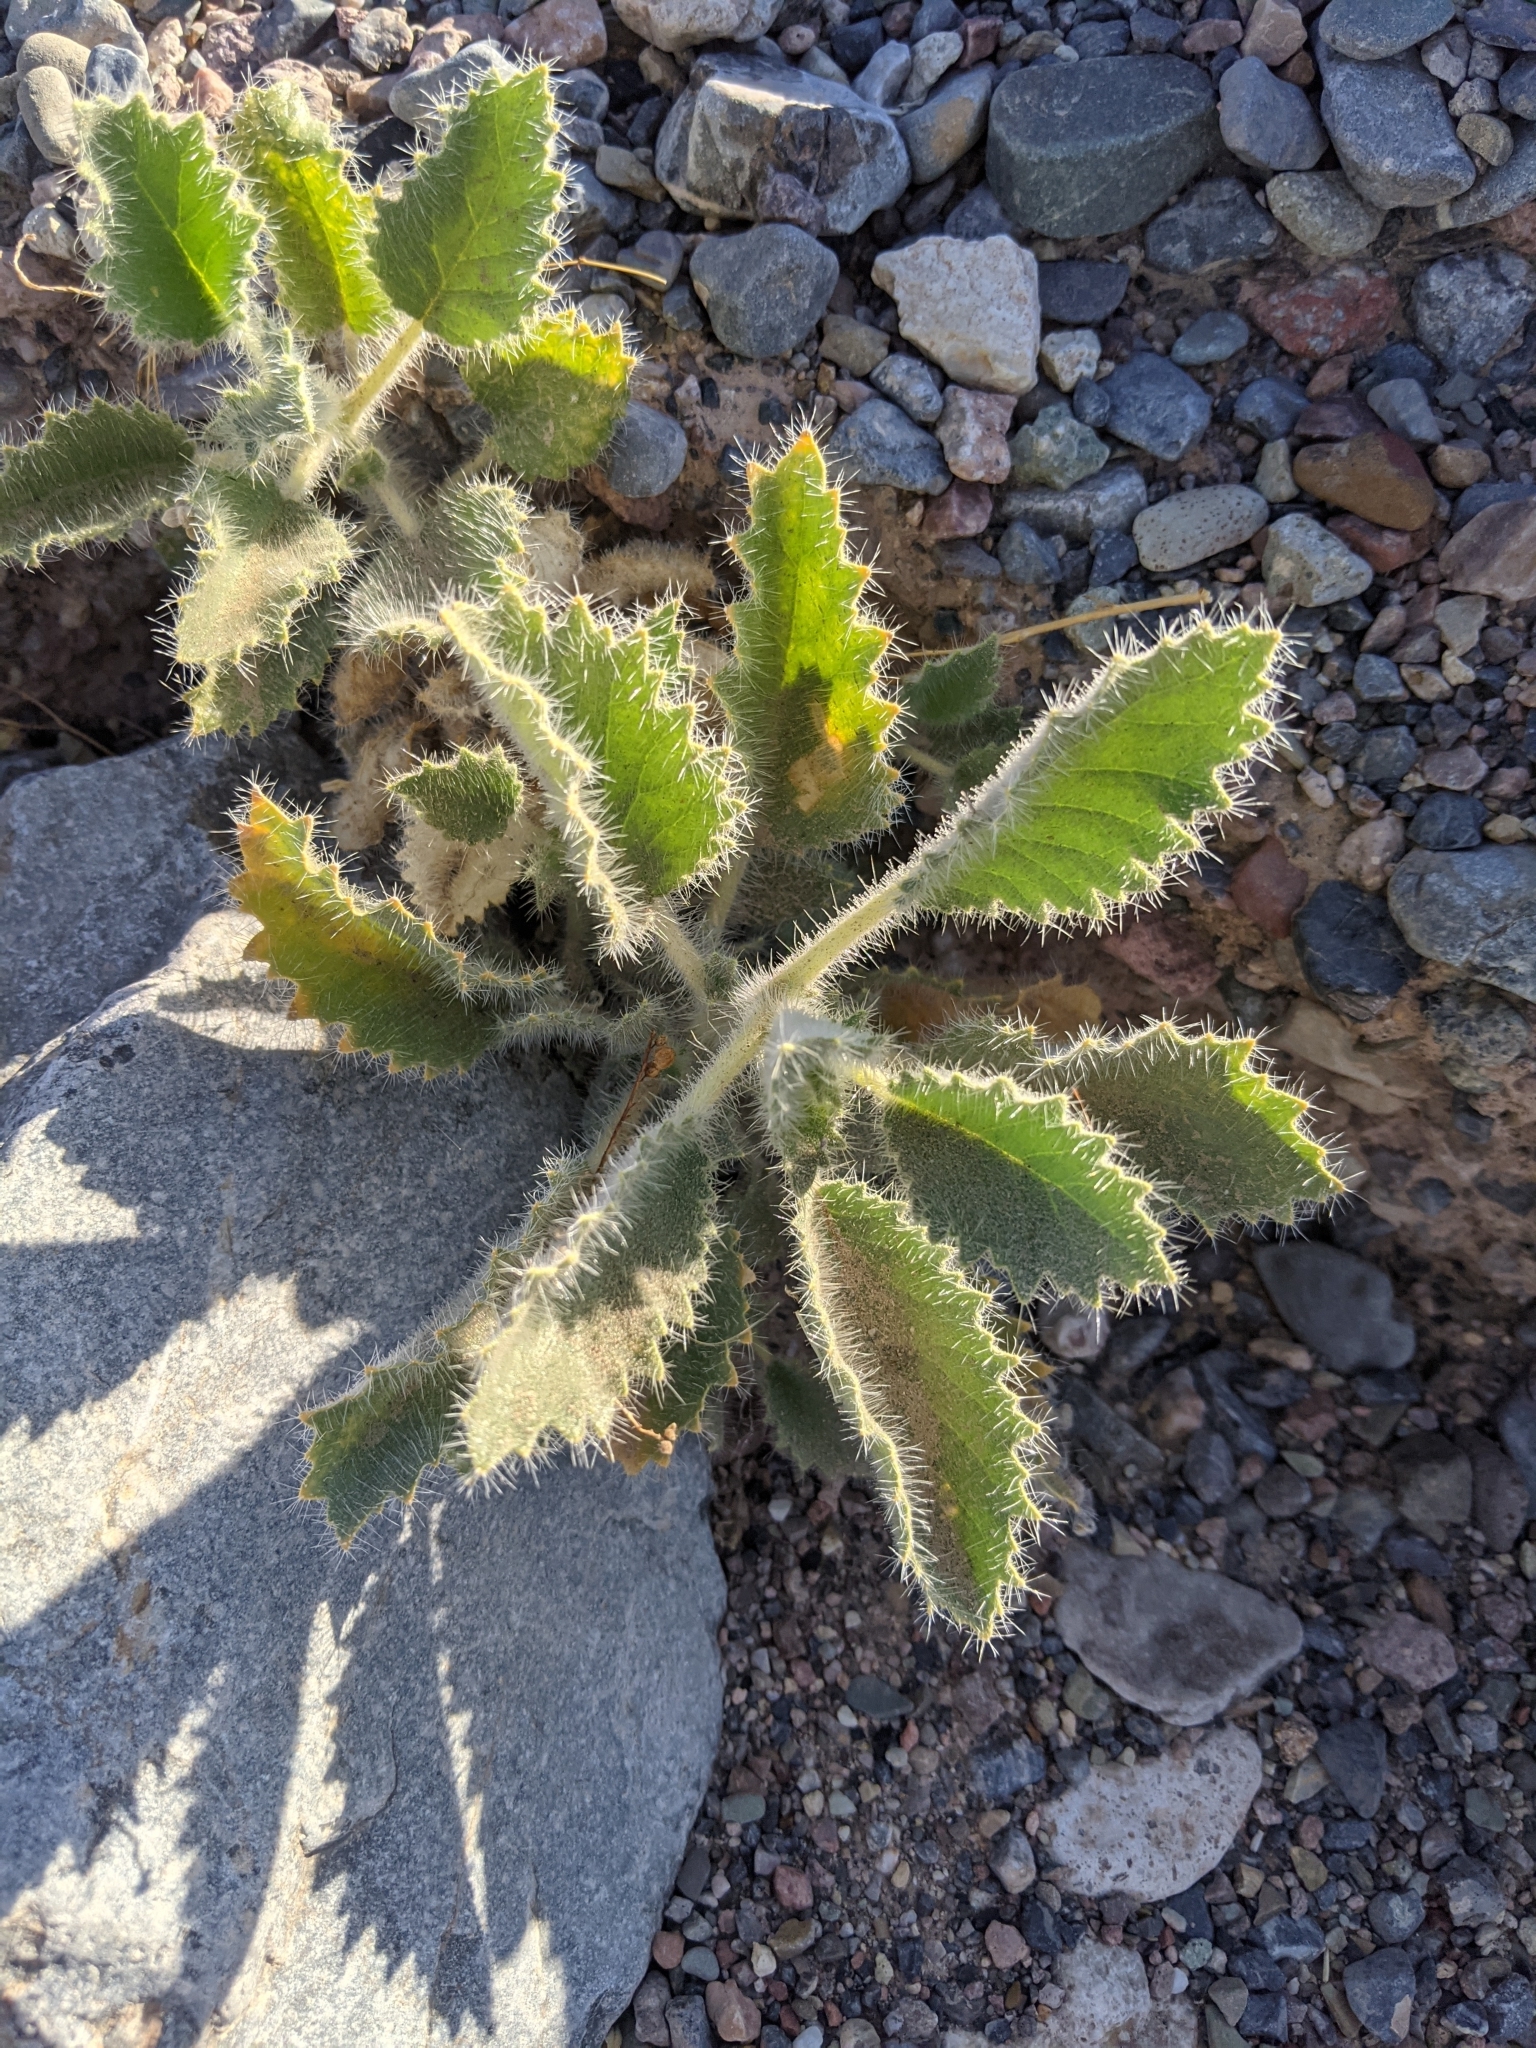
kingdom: Plantae
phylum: Tracheophyta
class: Magnoliopsida
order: Cornales
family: Loasaceae
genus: Eucnide
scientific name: Eucnide urens
